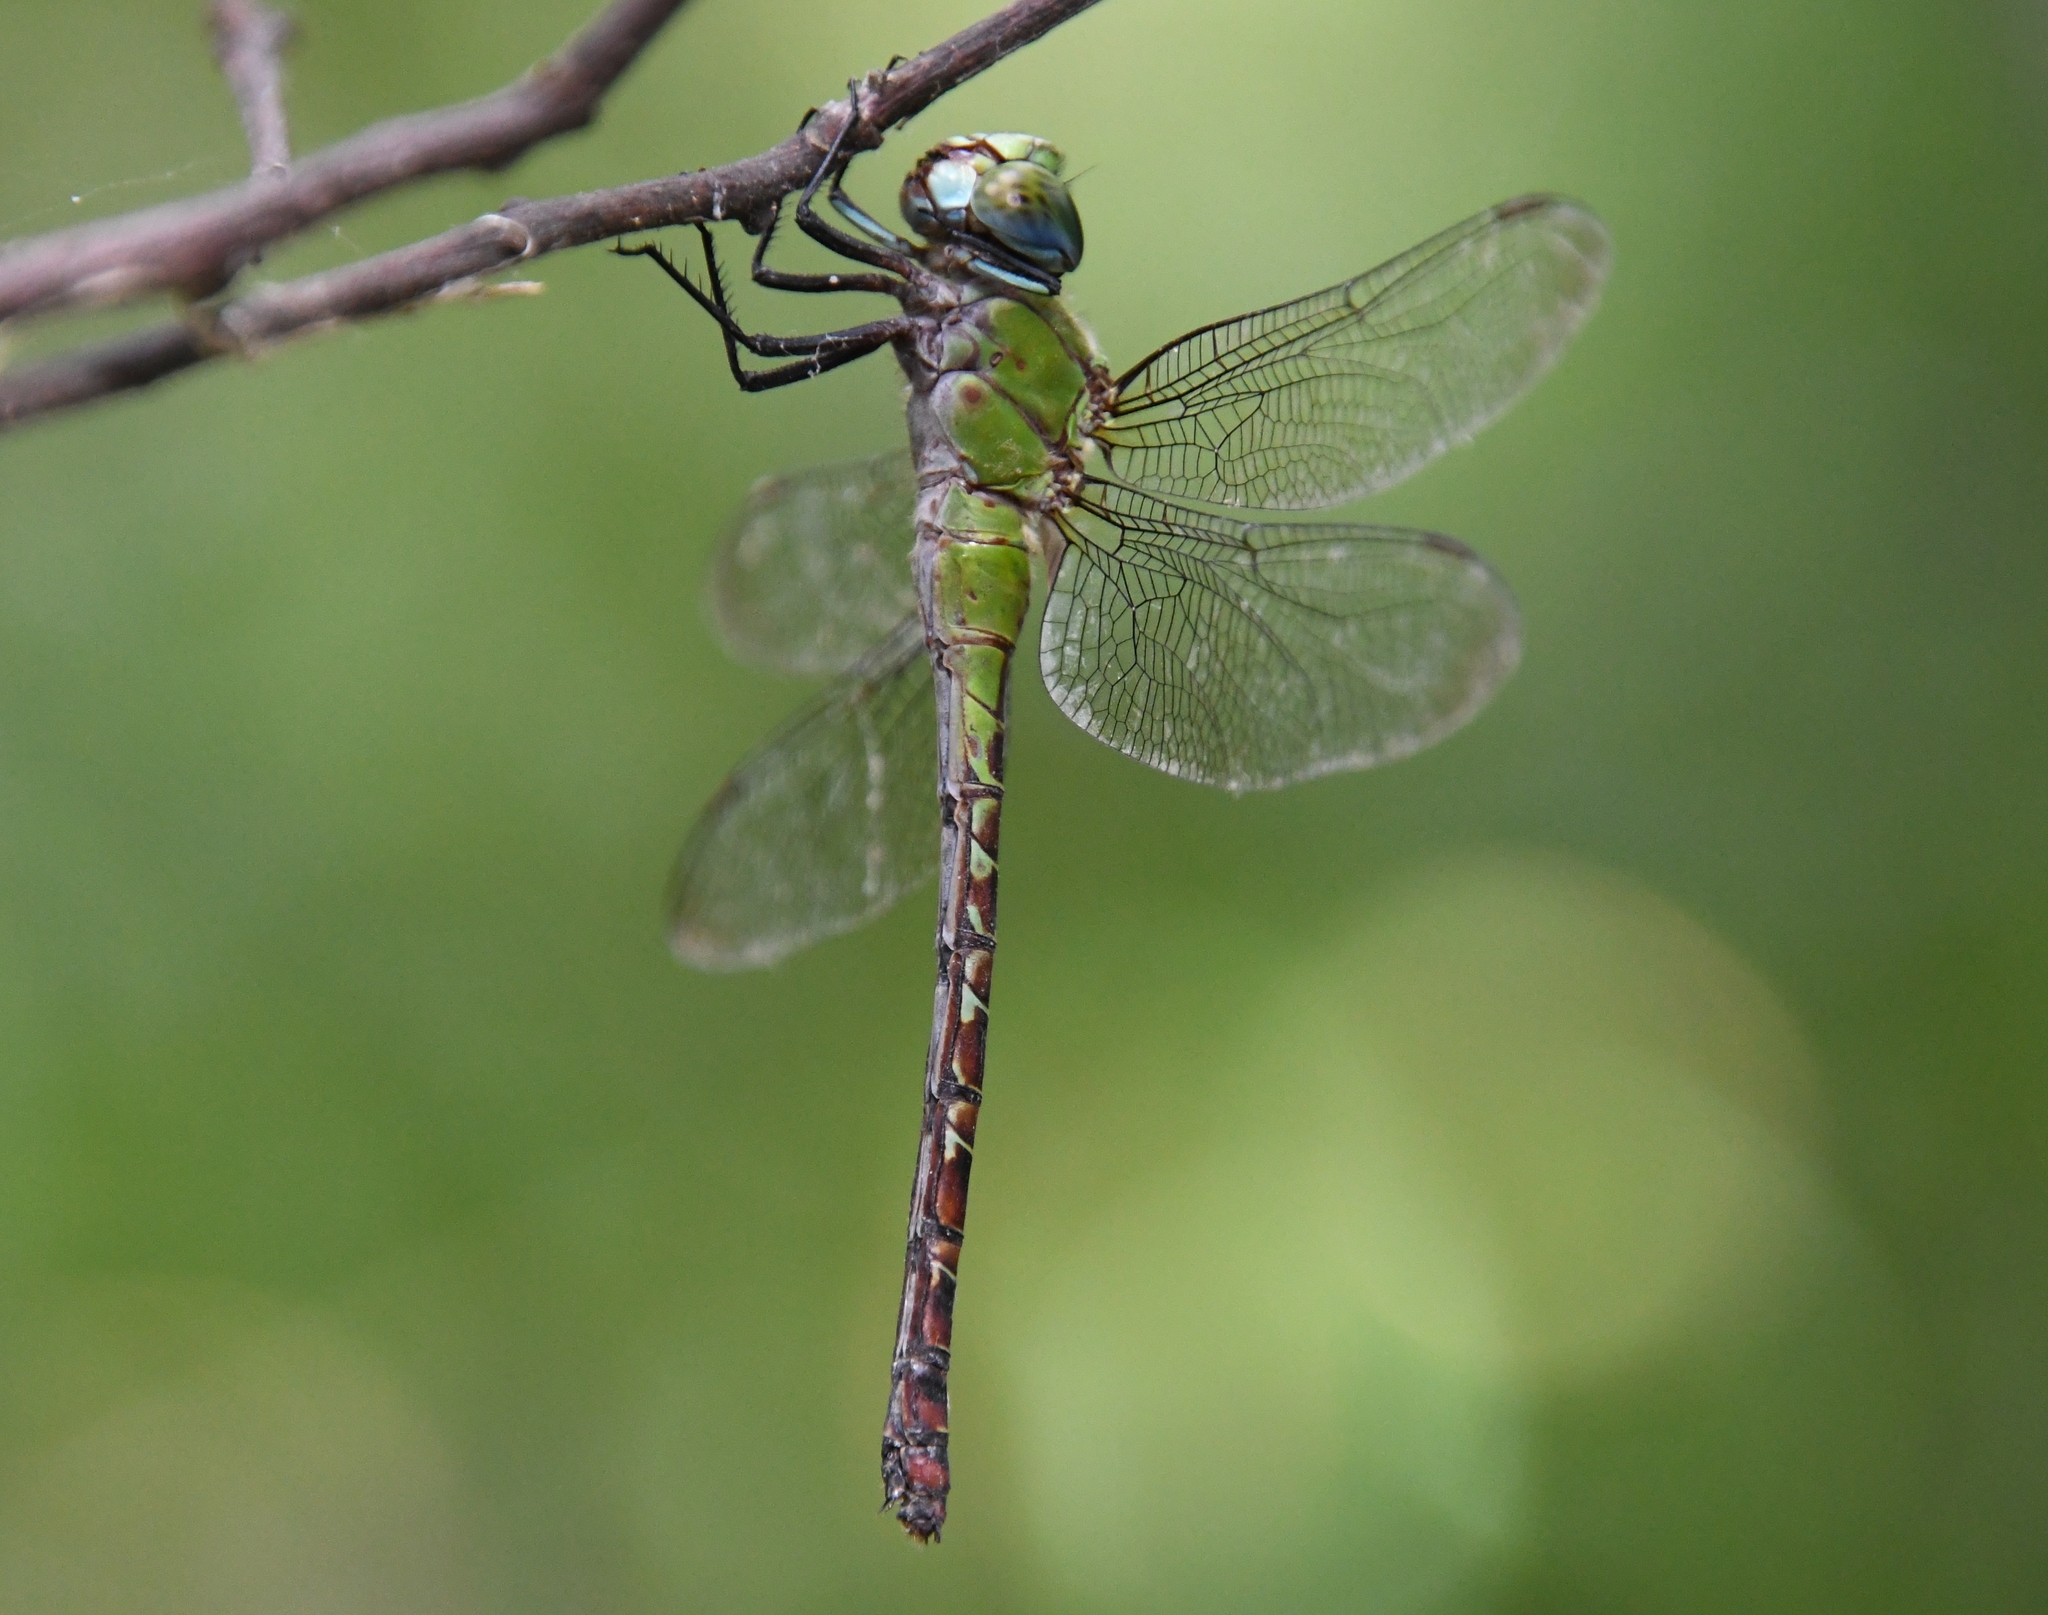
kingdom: Animalia
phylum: Arthropoda
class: Insecta
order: Odonata
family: Aeshnidae
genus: Coryphaeschna
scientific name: Coryphaeschna adnexa
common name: Blue-faced darner
